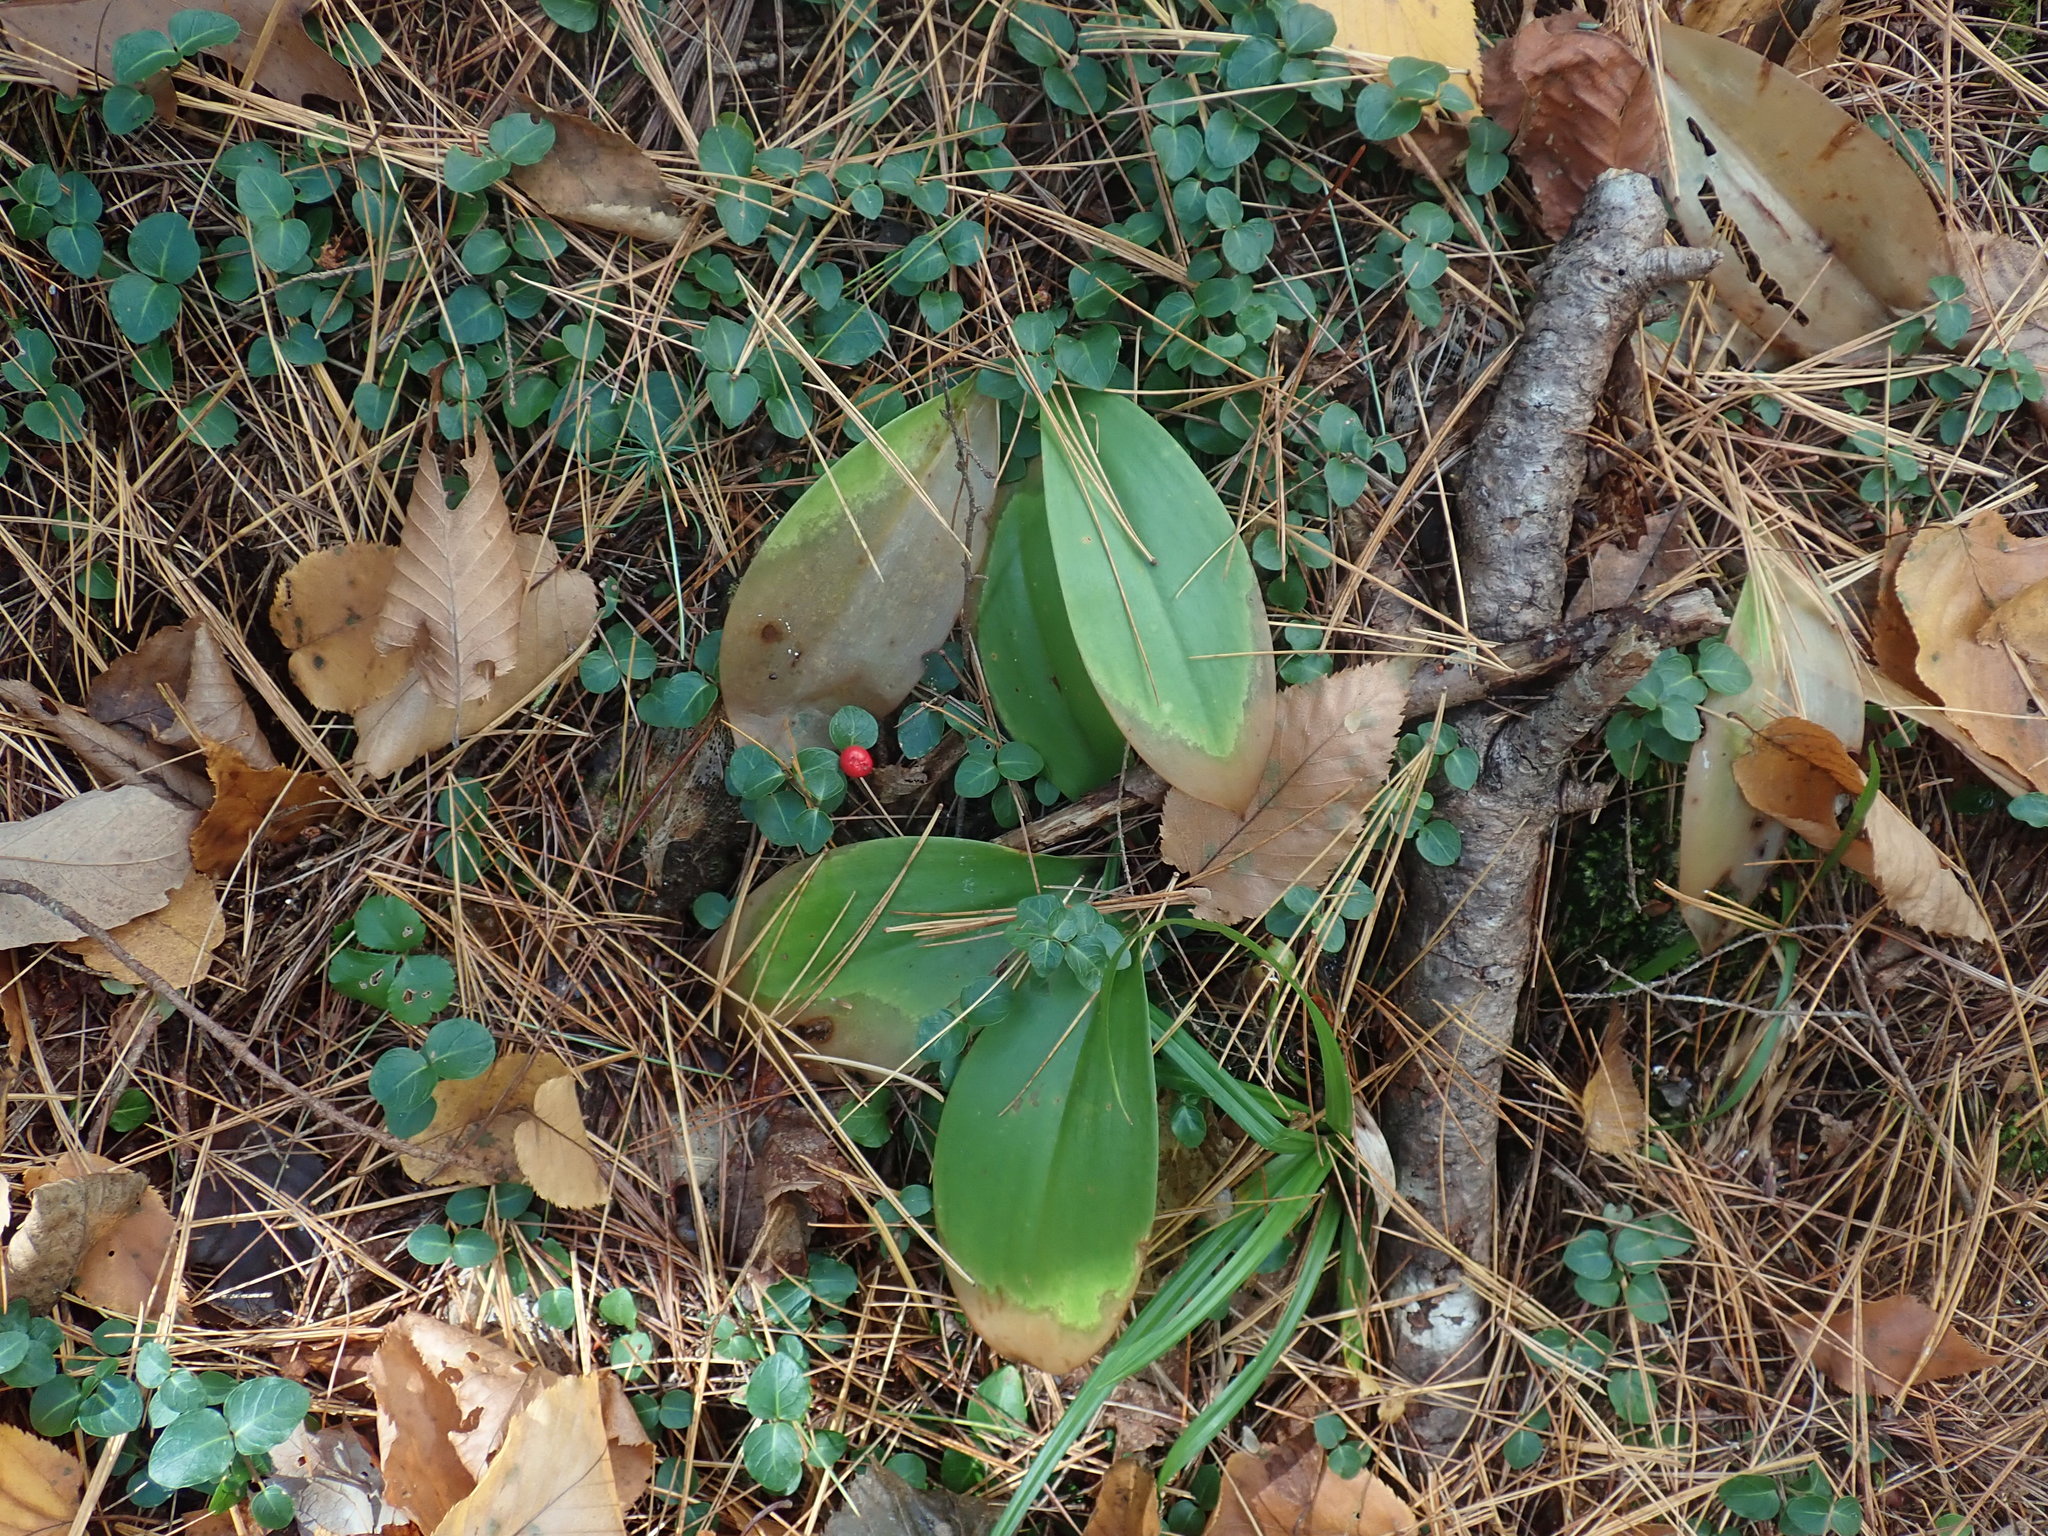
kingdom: Plantae
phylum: Tracheophyta
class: Liliopsida
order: Liliales
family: Liliaceae
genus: Clintonia
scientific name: Clintonia borealis
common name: Yellow clintonia
